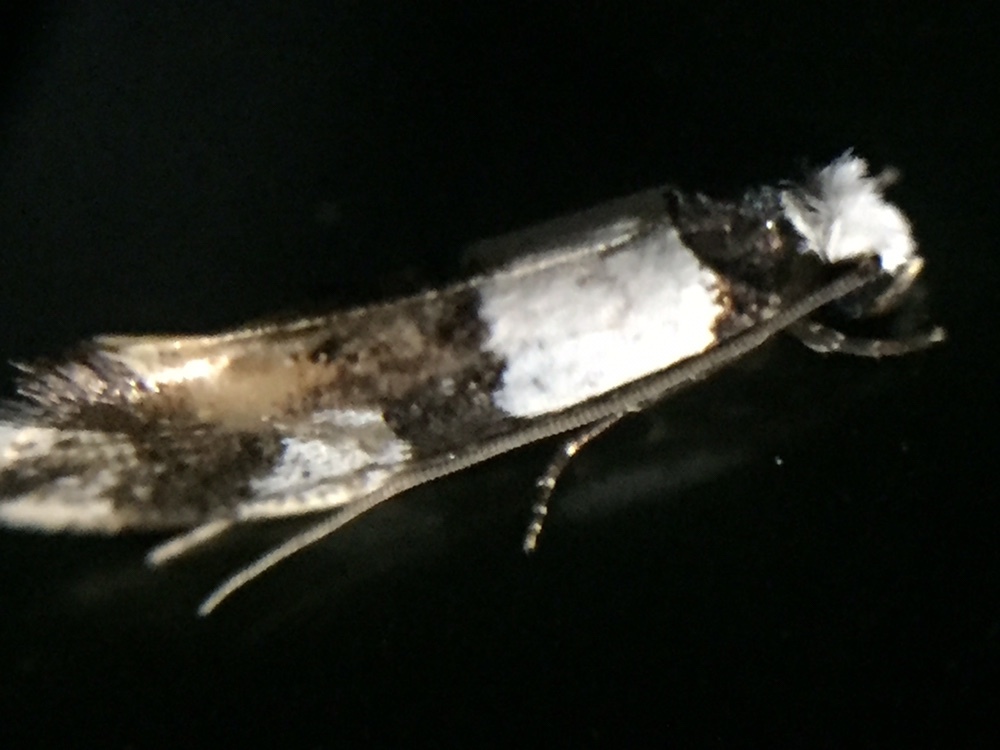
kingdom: Animalia
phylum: Arthropoda
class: Insecta
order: Lepidoptera
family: Tineidae
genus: Monopis
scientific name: Monopis icterogastra
